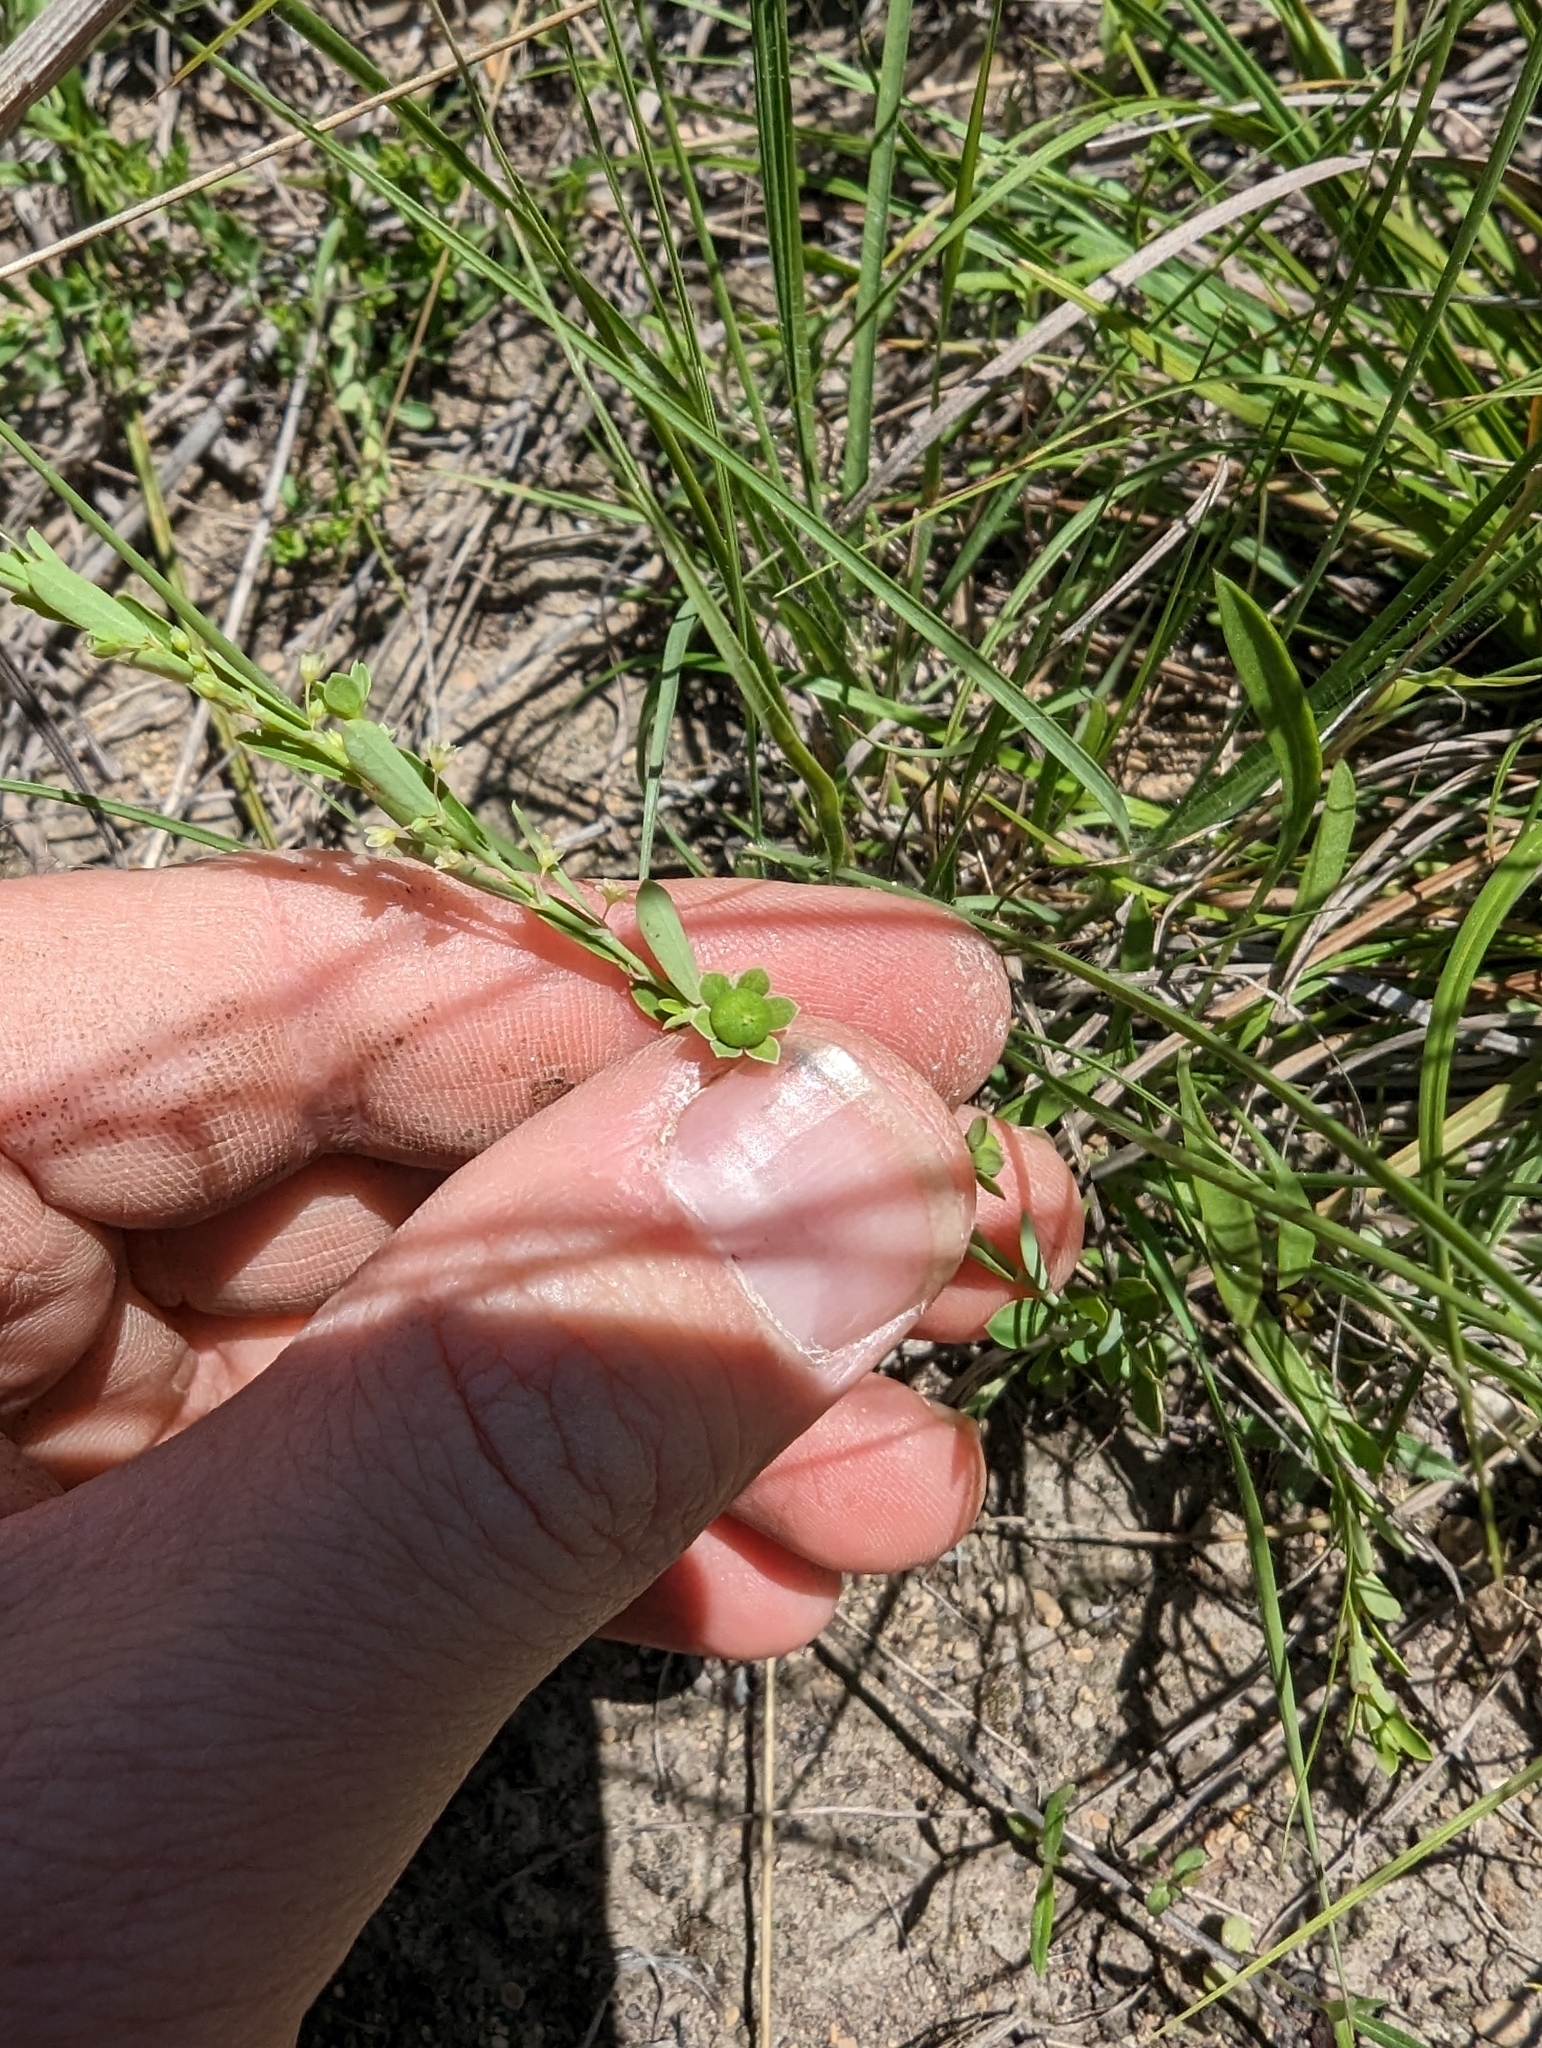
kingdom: Plantae
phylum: Tracheophyta
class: Magnoliopsida
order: Malpighiales
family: Phyllanthaceae
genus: Phyllanthus
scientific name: Phyllanthus polygonoides
